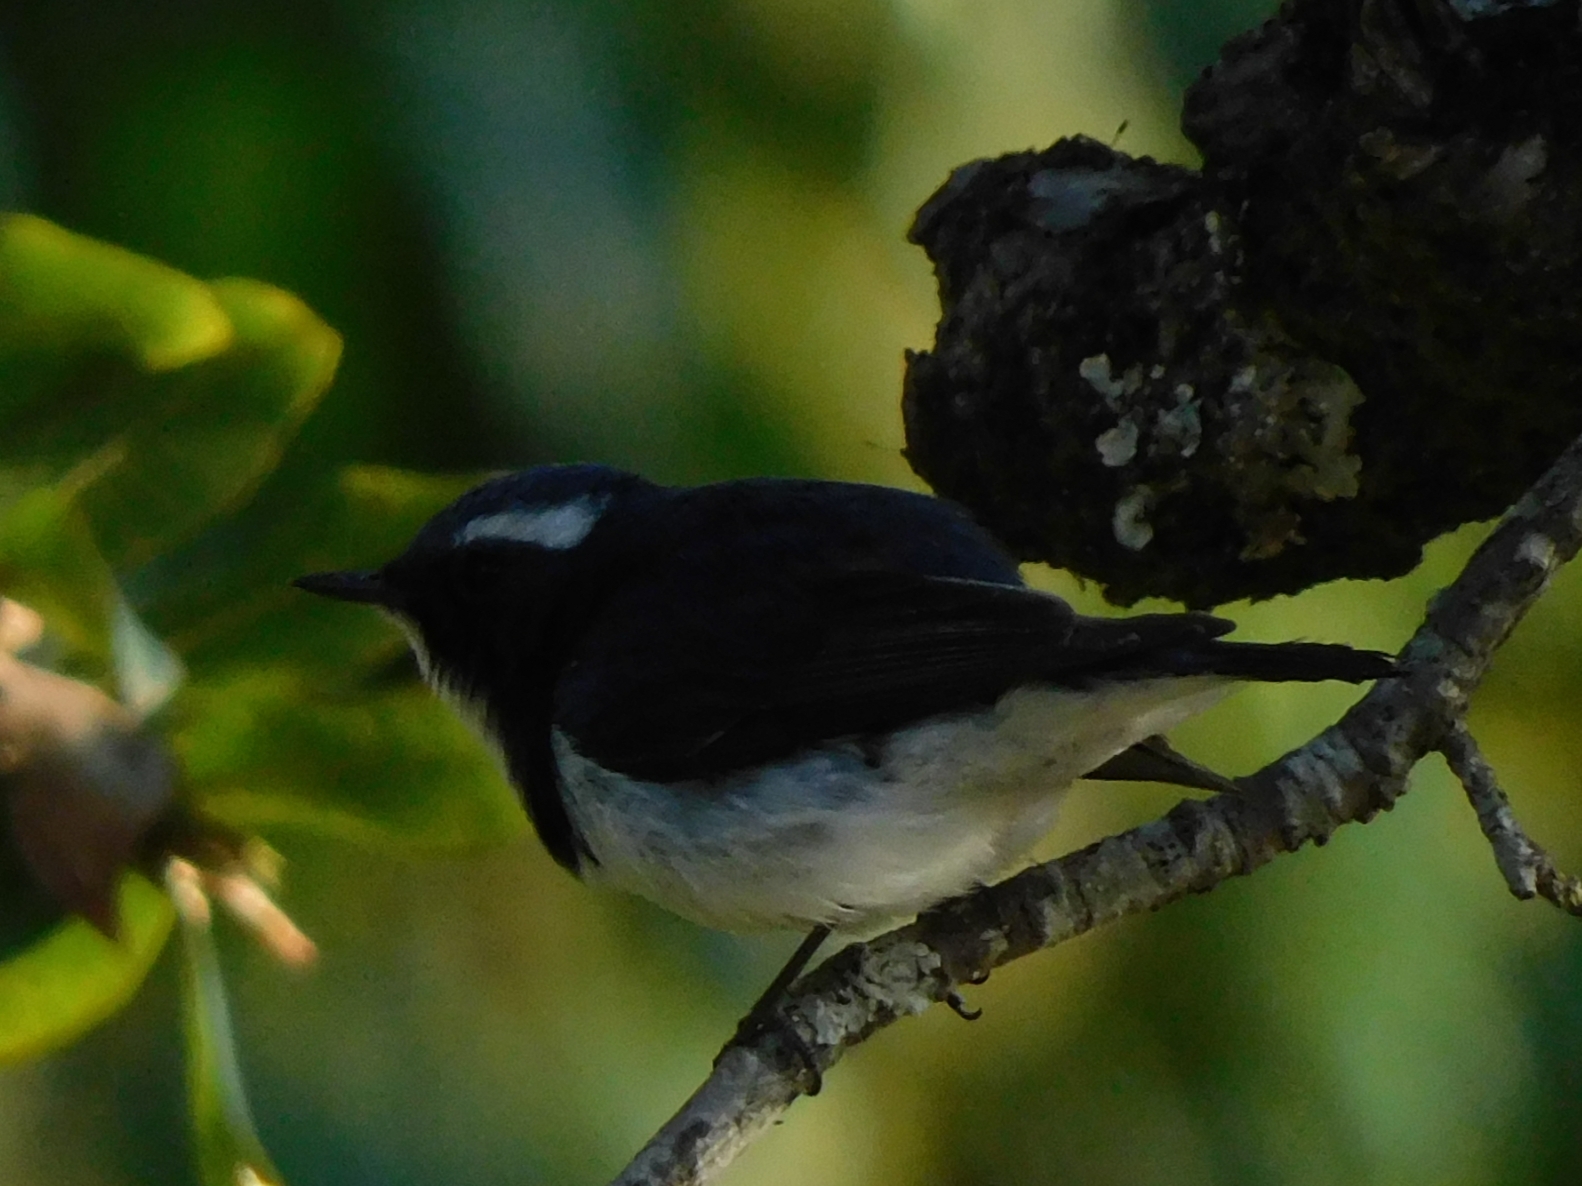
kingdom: Animalia
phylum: Chordata
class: Aves
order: Passeriformes
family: Muscicapidae
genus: Ficedula
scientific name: Ficedula superciliaris
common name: Ultramarine flycatcher
